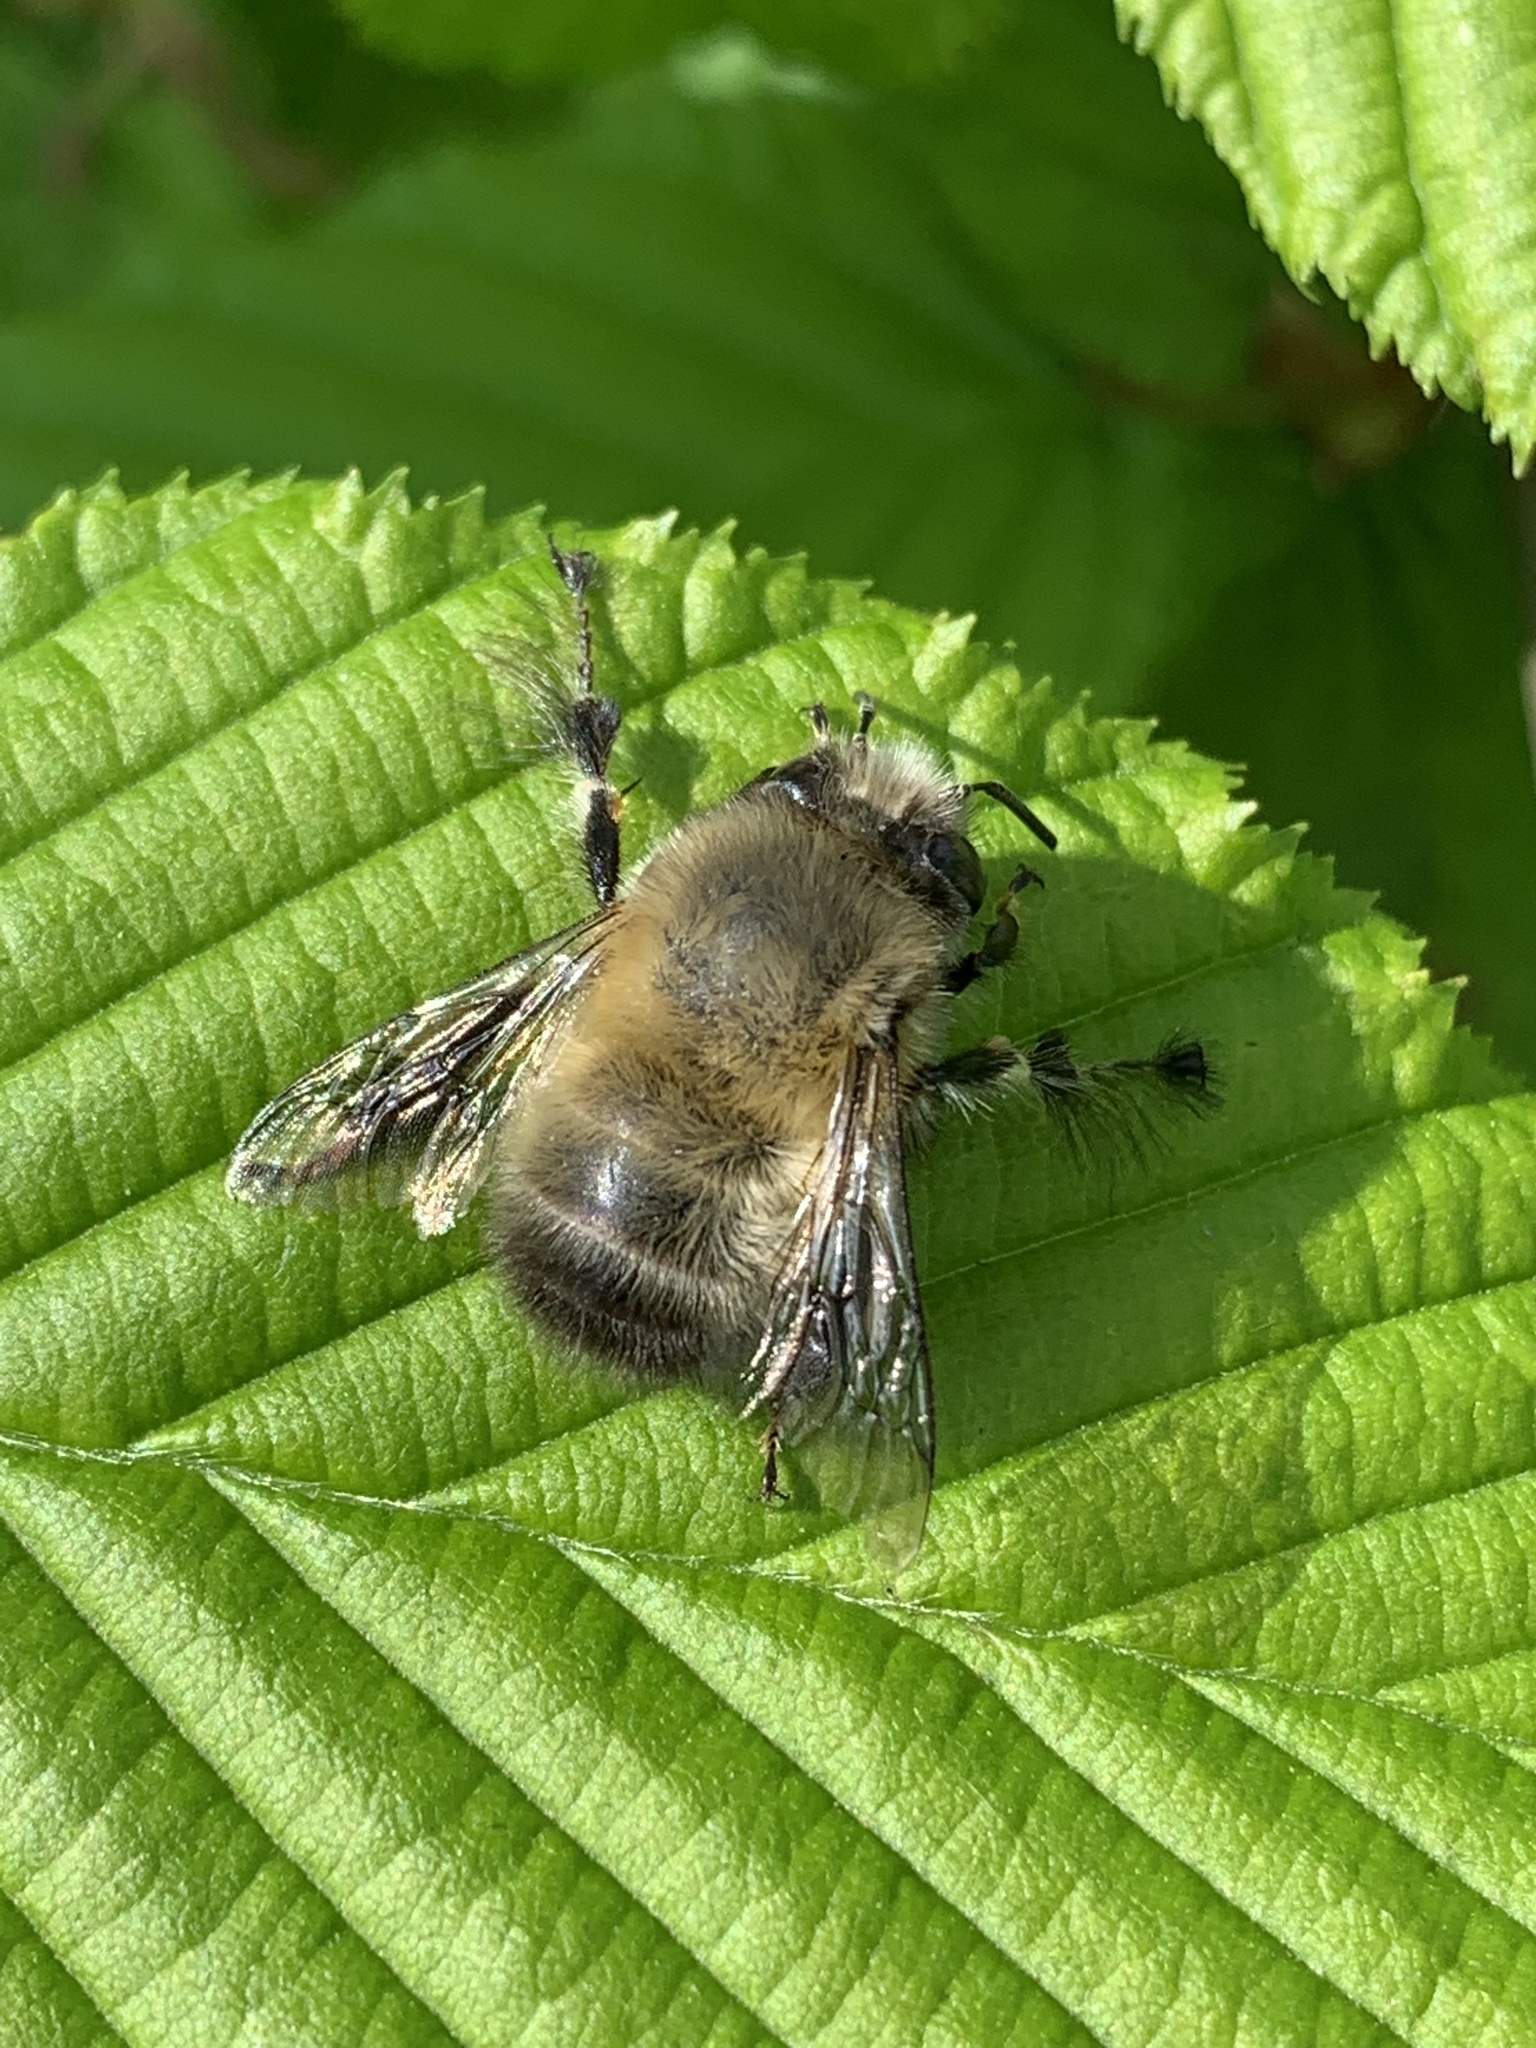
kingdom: Animalia
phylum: Arthropoda
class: Insecta
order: Hymenoptera
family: Apidae
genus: Anthophora
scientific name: Anthophora plumipes
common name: Hairy-footed flower bee
